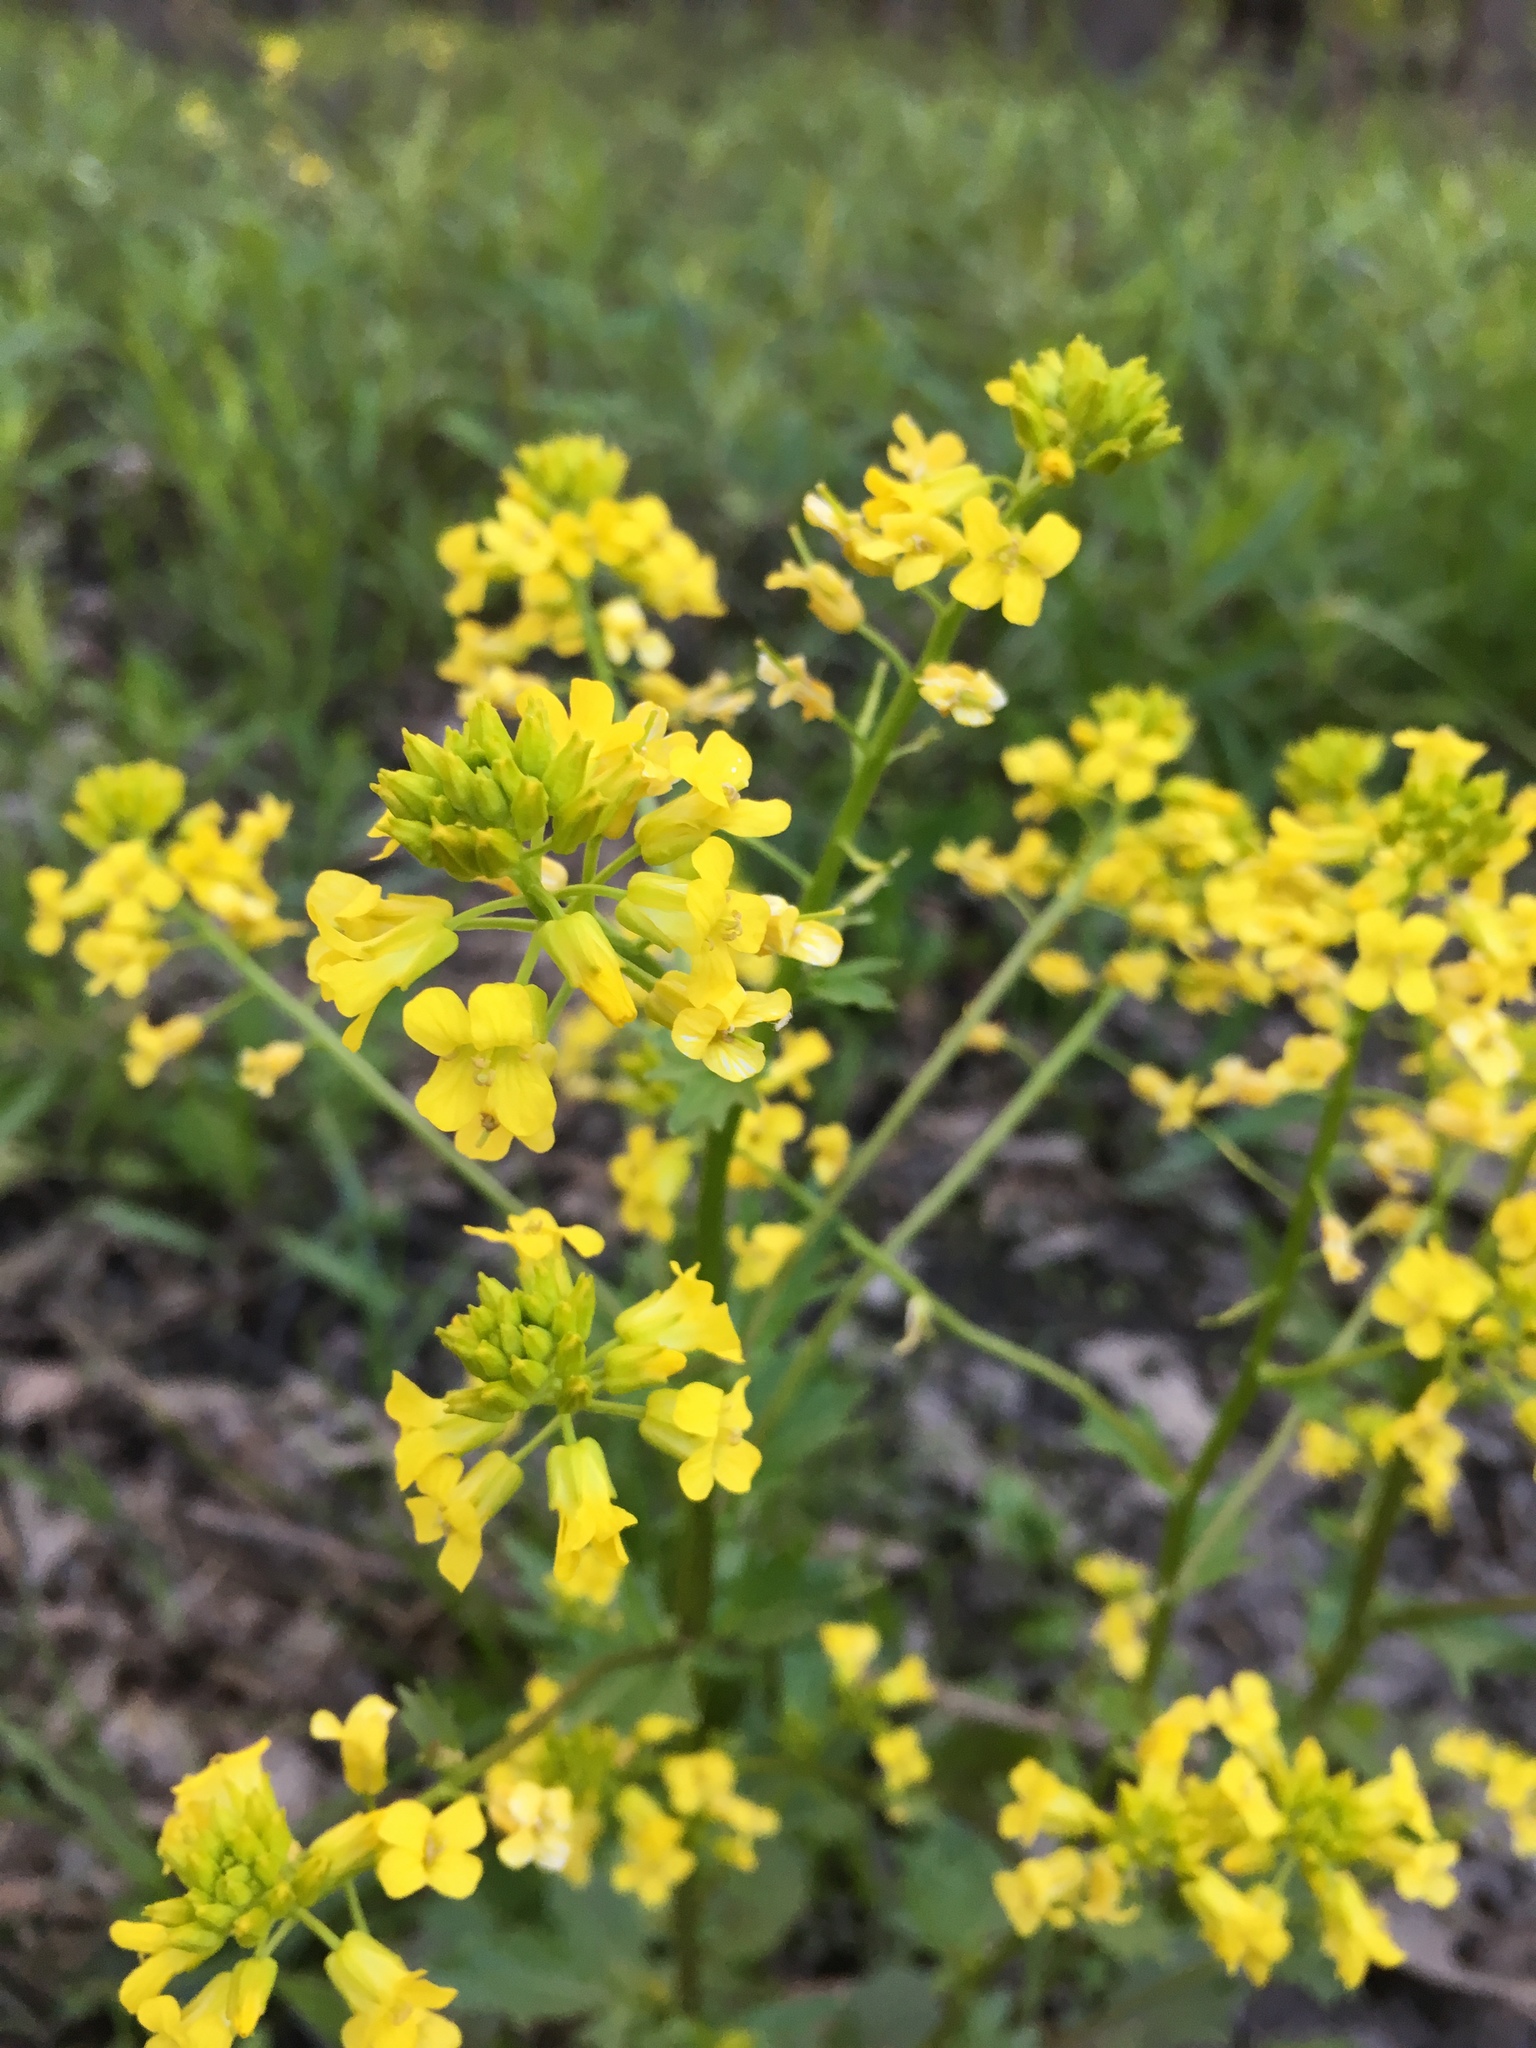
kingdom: Plantae
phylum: Tracheophyta
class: Magnoliopsida
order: Brassicales
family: Brassicaceae
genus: Barbarea
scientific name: Barbarea vulgaris
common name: Cressy-greens
